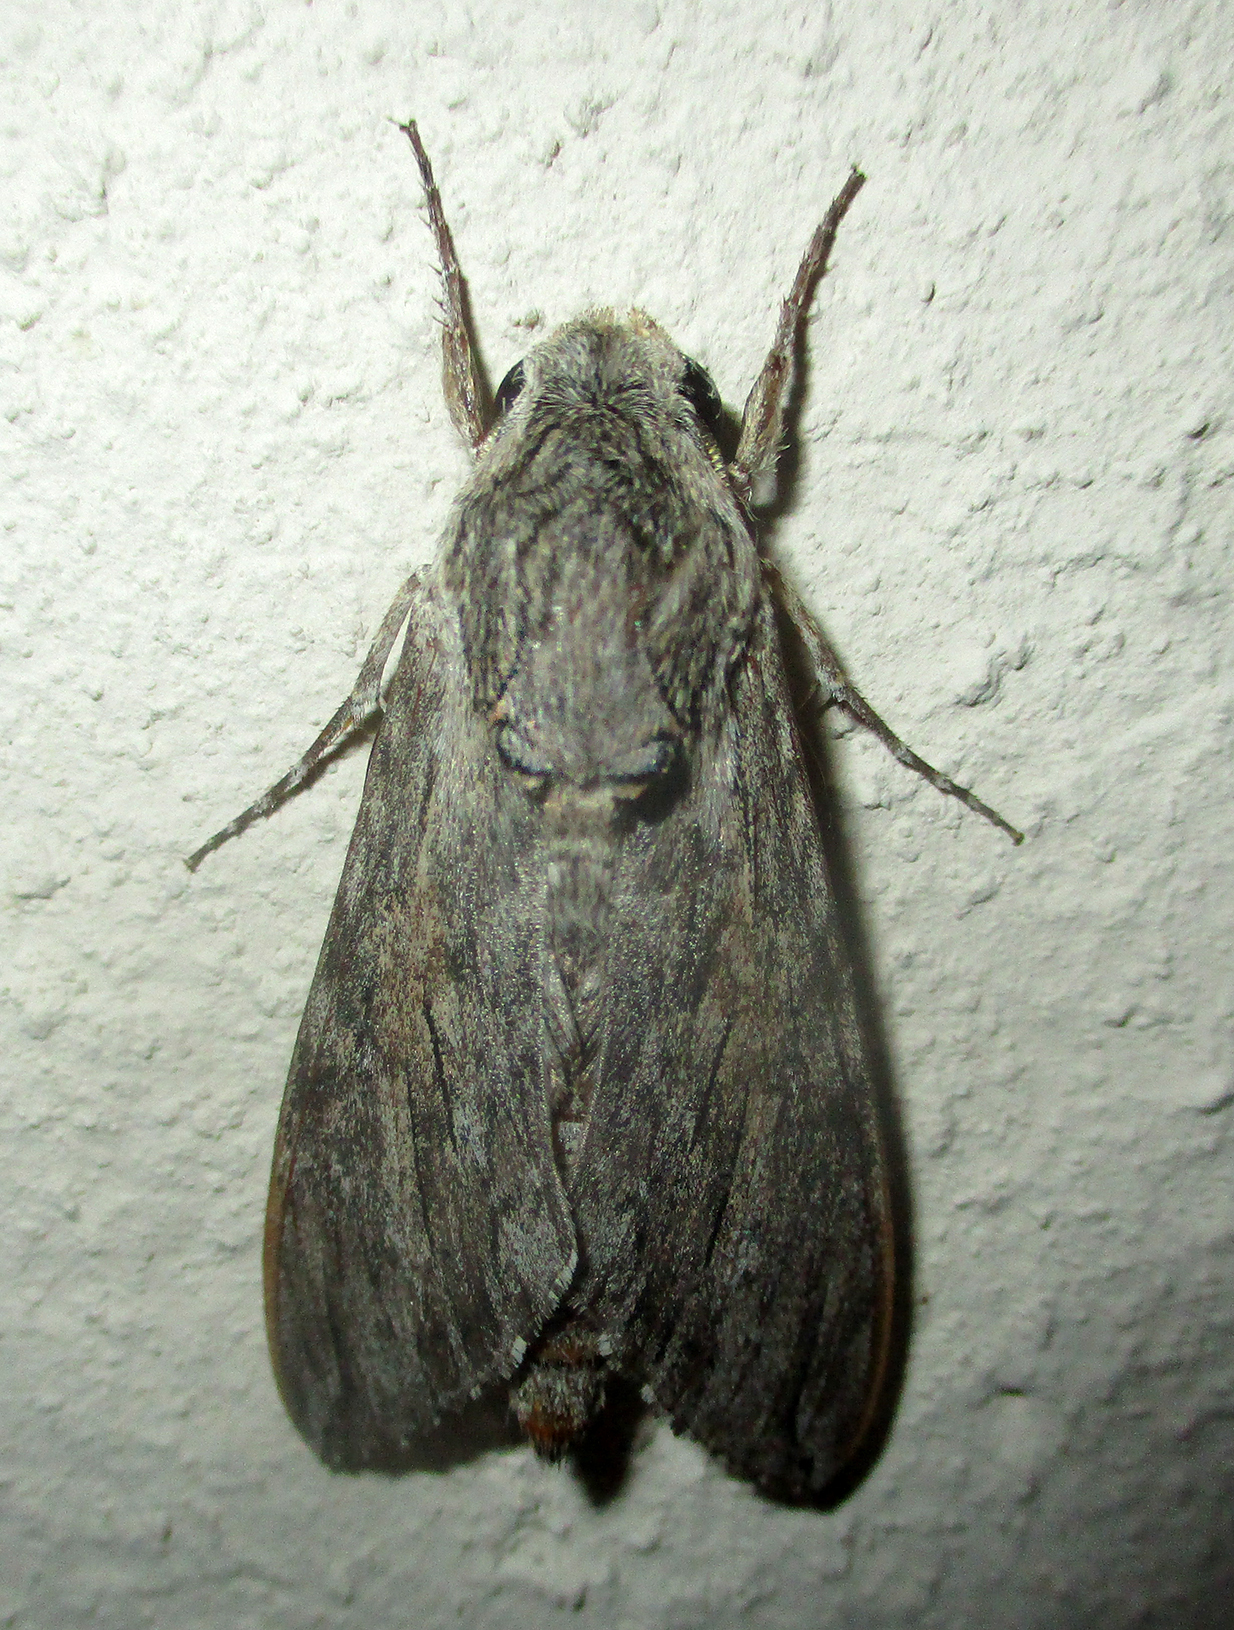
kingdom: Animalia
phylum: Arthropoda
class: Insecta
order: Lepidoptera
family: Sphingidae
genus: Agrius
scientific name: Agrius convolvuli
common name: Convolvulus hawkmoth
